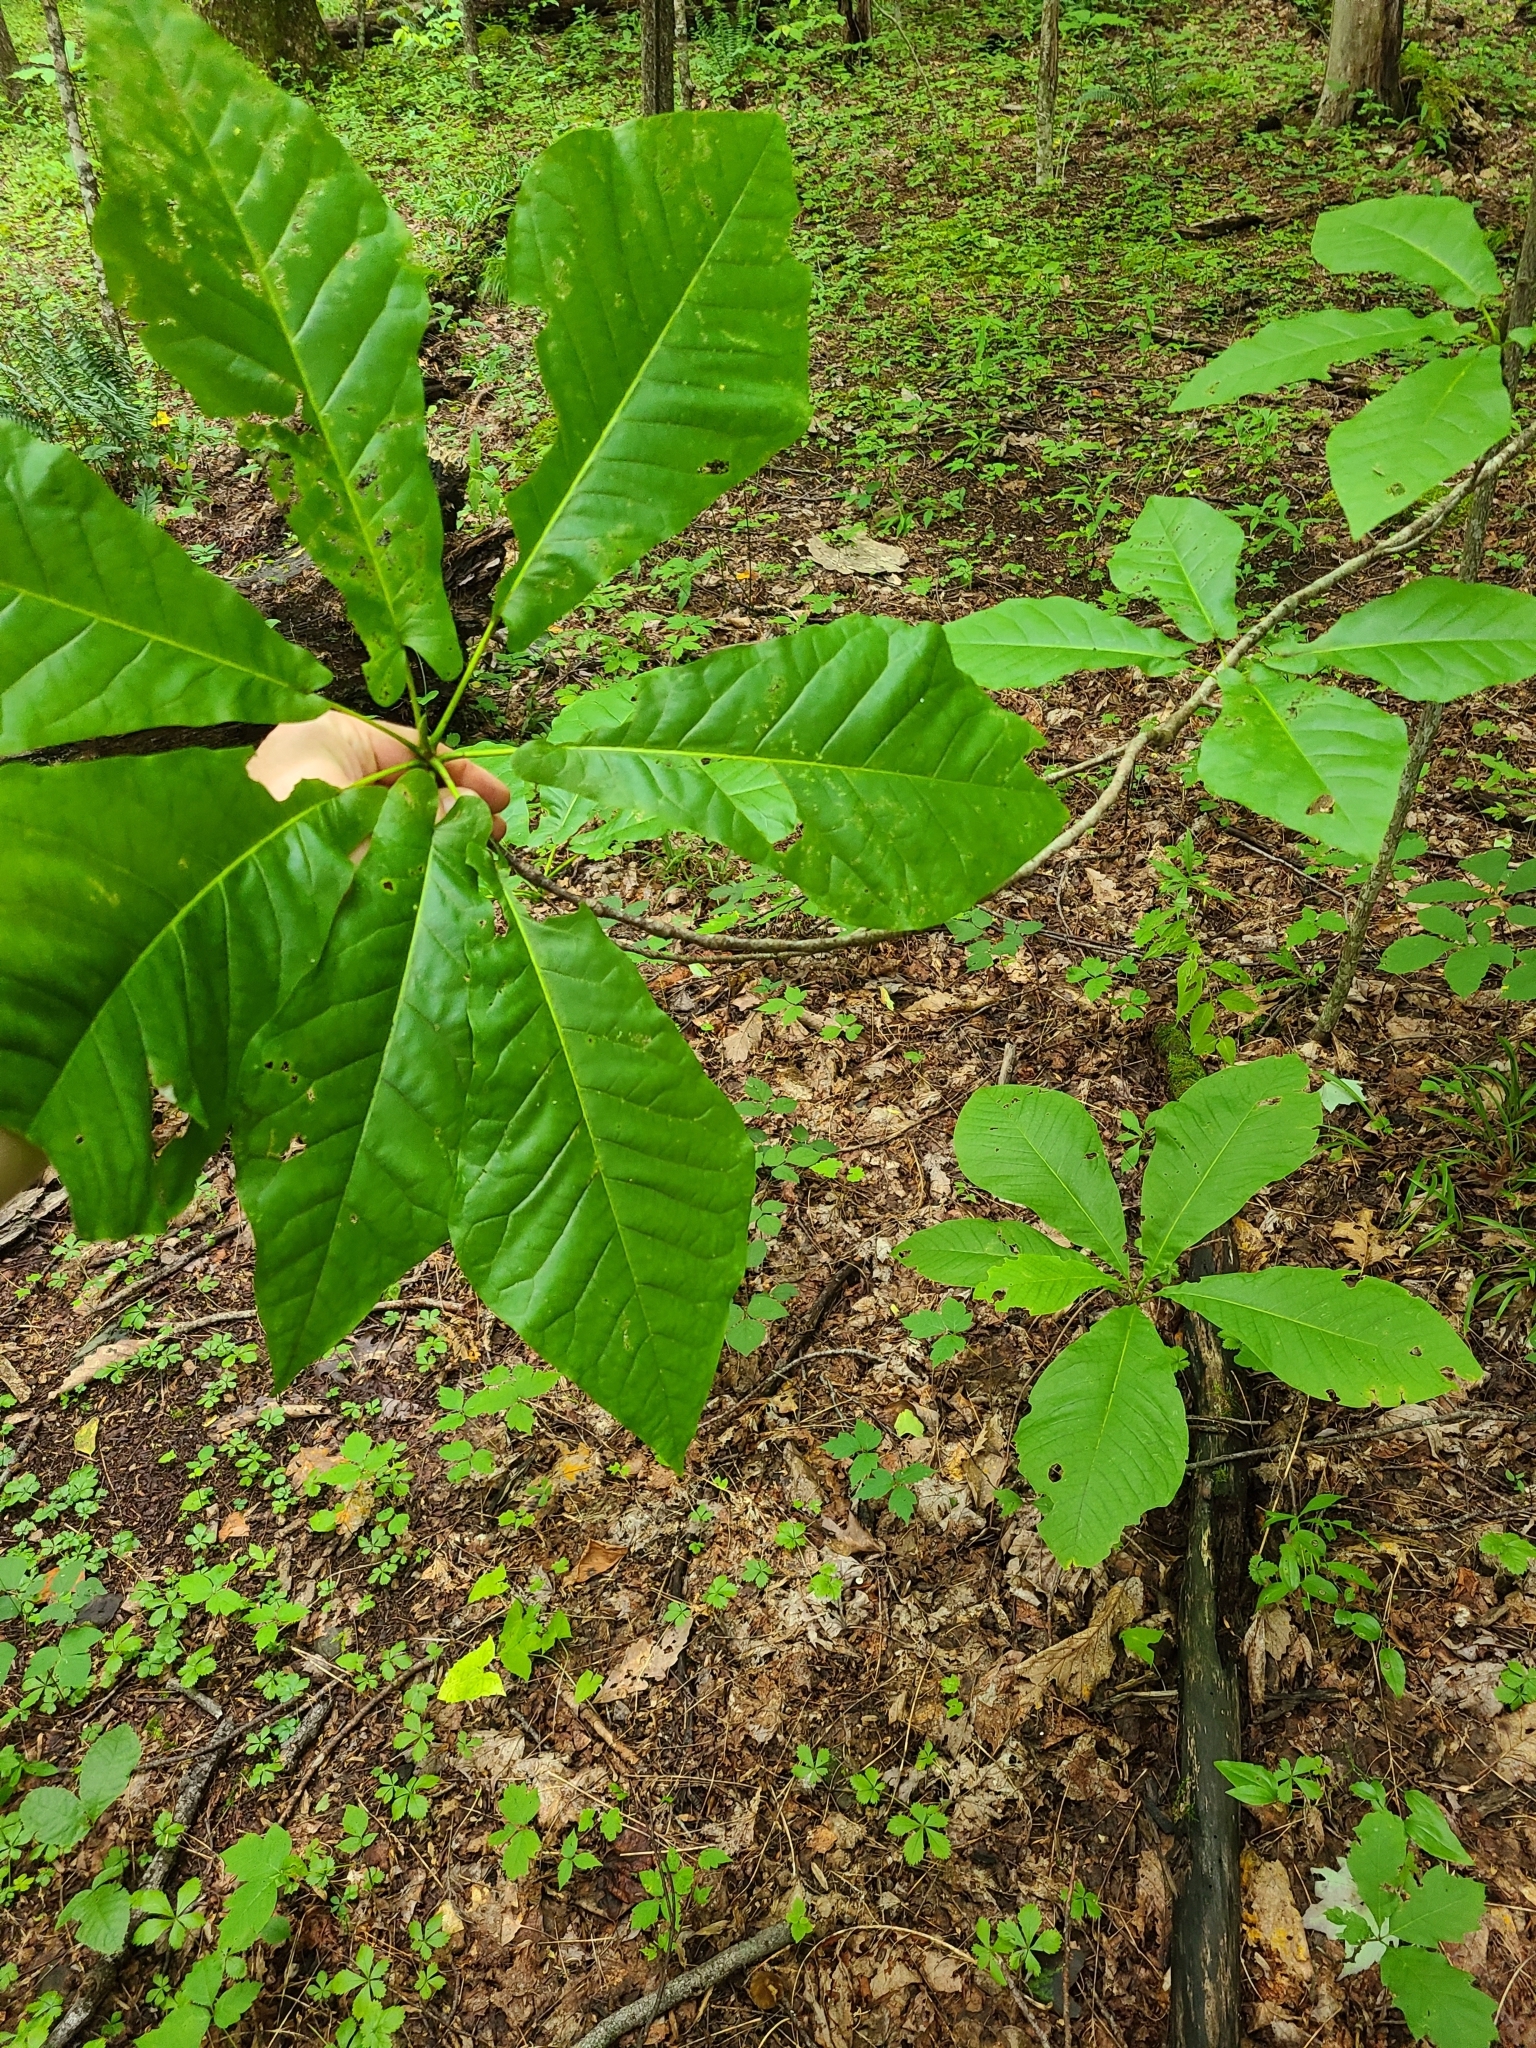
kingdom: Plantae
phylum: Tracheophyta
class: Magnoliopsida
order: Magnoliales
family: Magnoliaceae
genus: Magnolia
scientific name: Magnolia fraseri
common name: Fraser's magnolia
